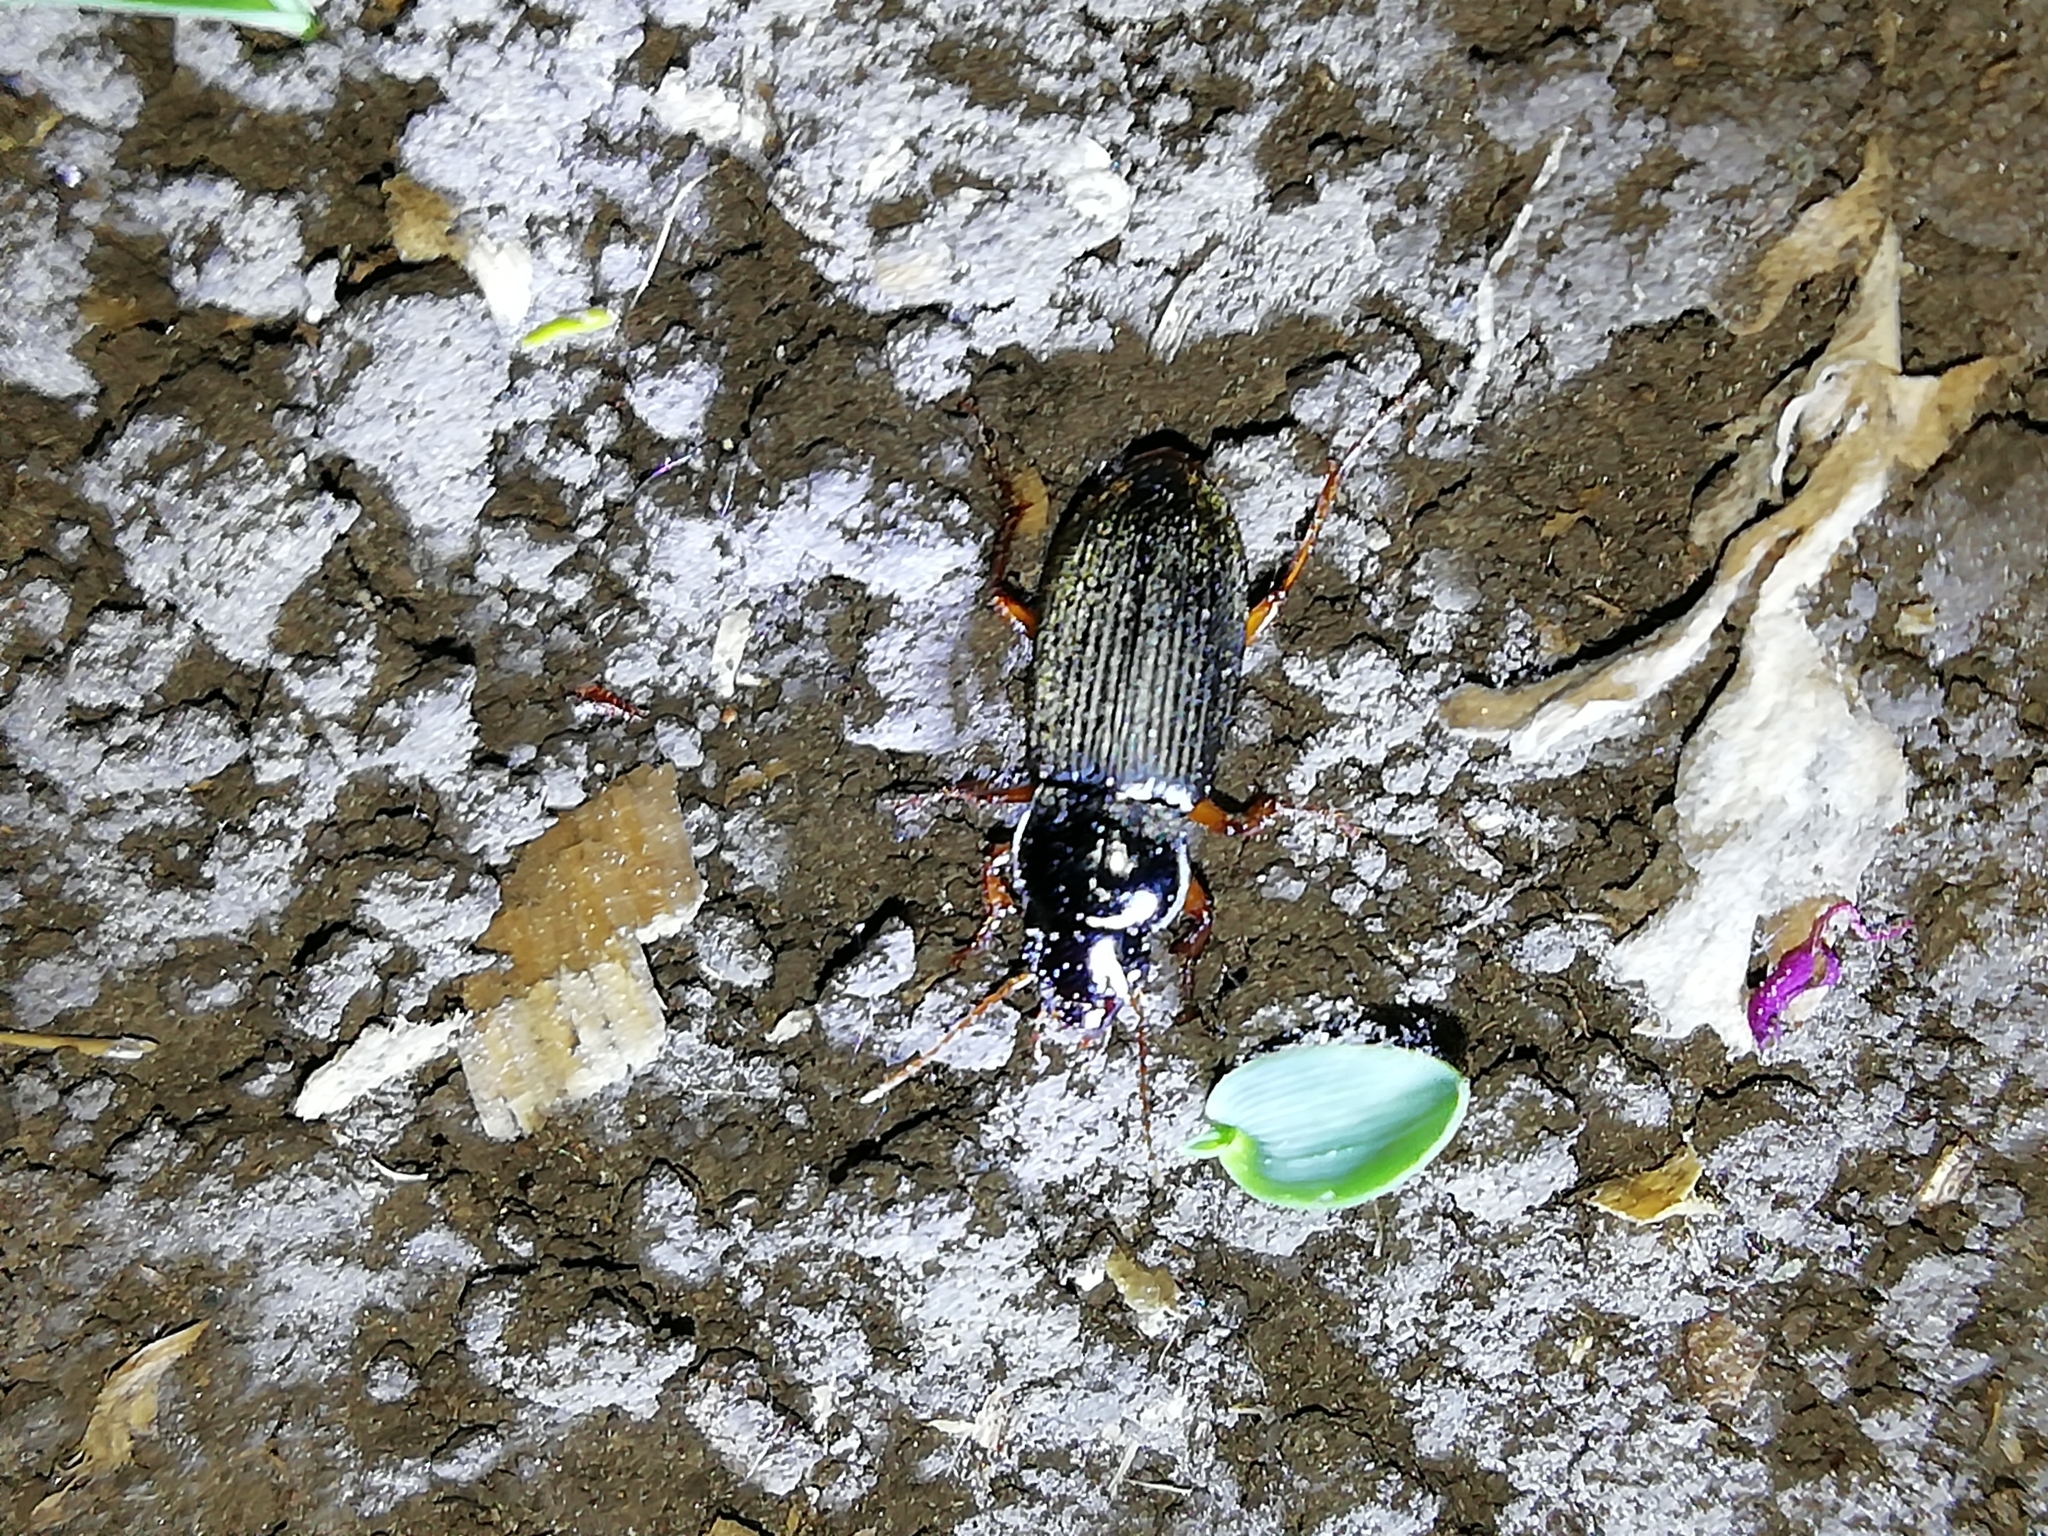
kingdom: Animalia
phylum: Arthropoda
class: Insecta
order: Coleoptera
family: Carabidae
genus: Harpalus
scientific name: Harpalus rufipes
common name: Strawberry harp ground beetle
